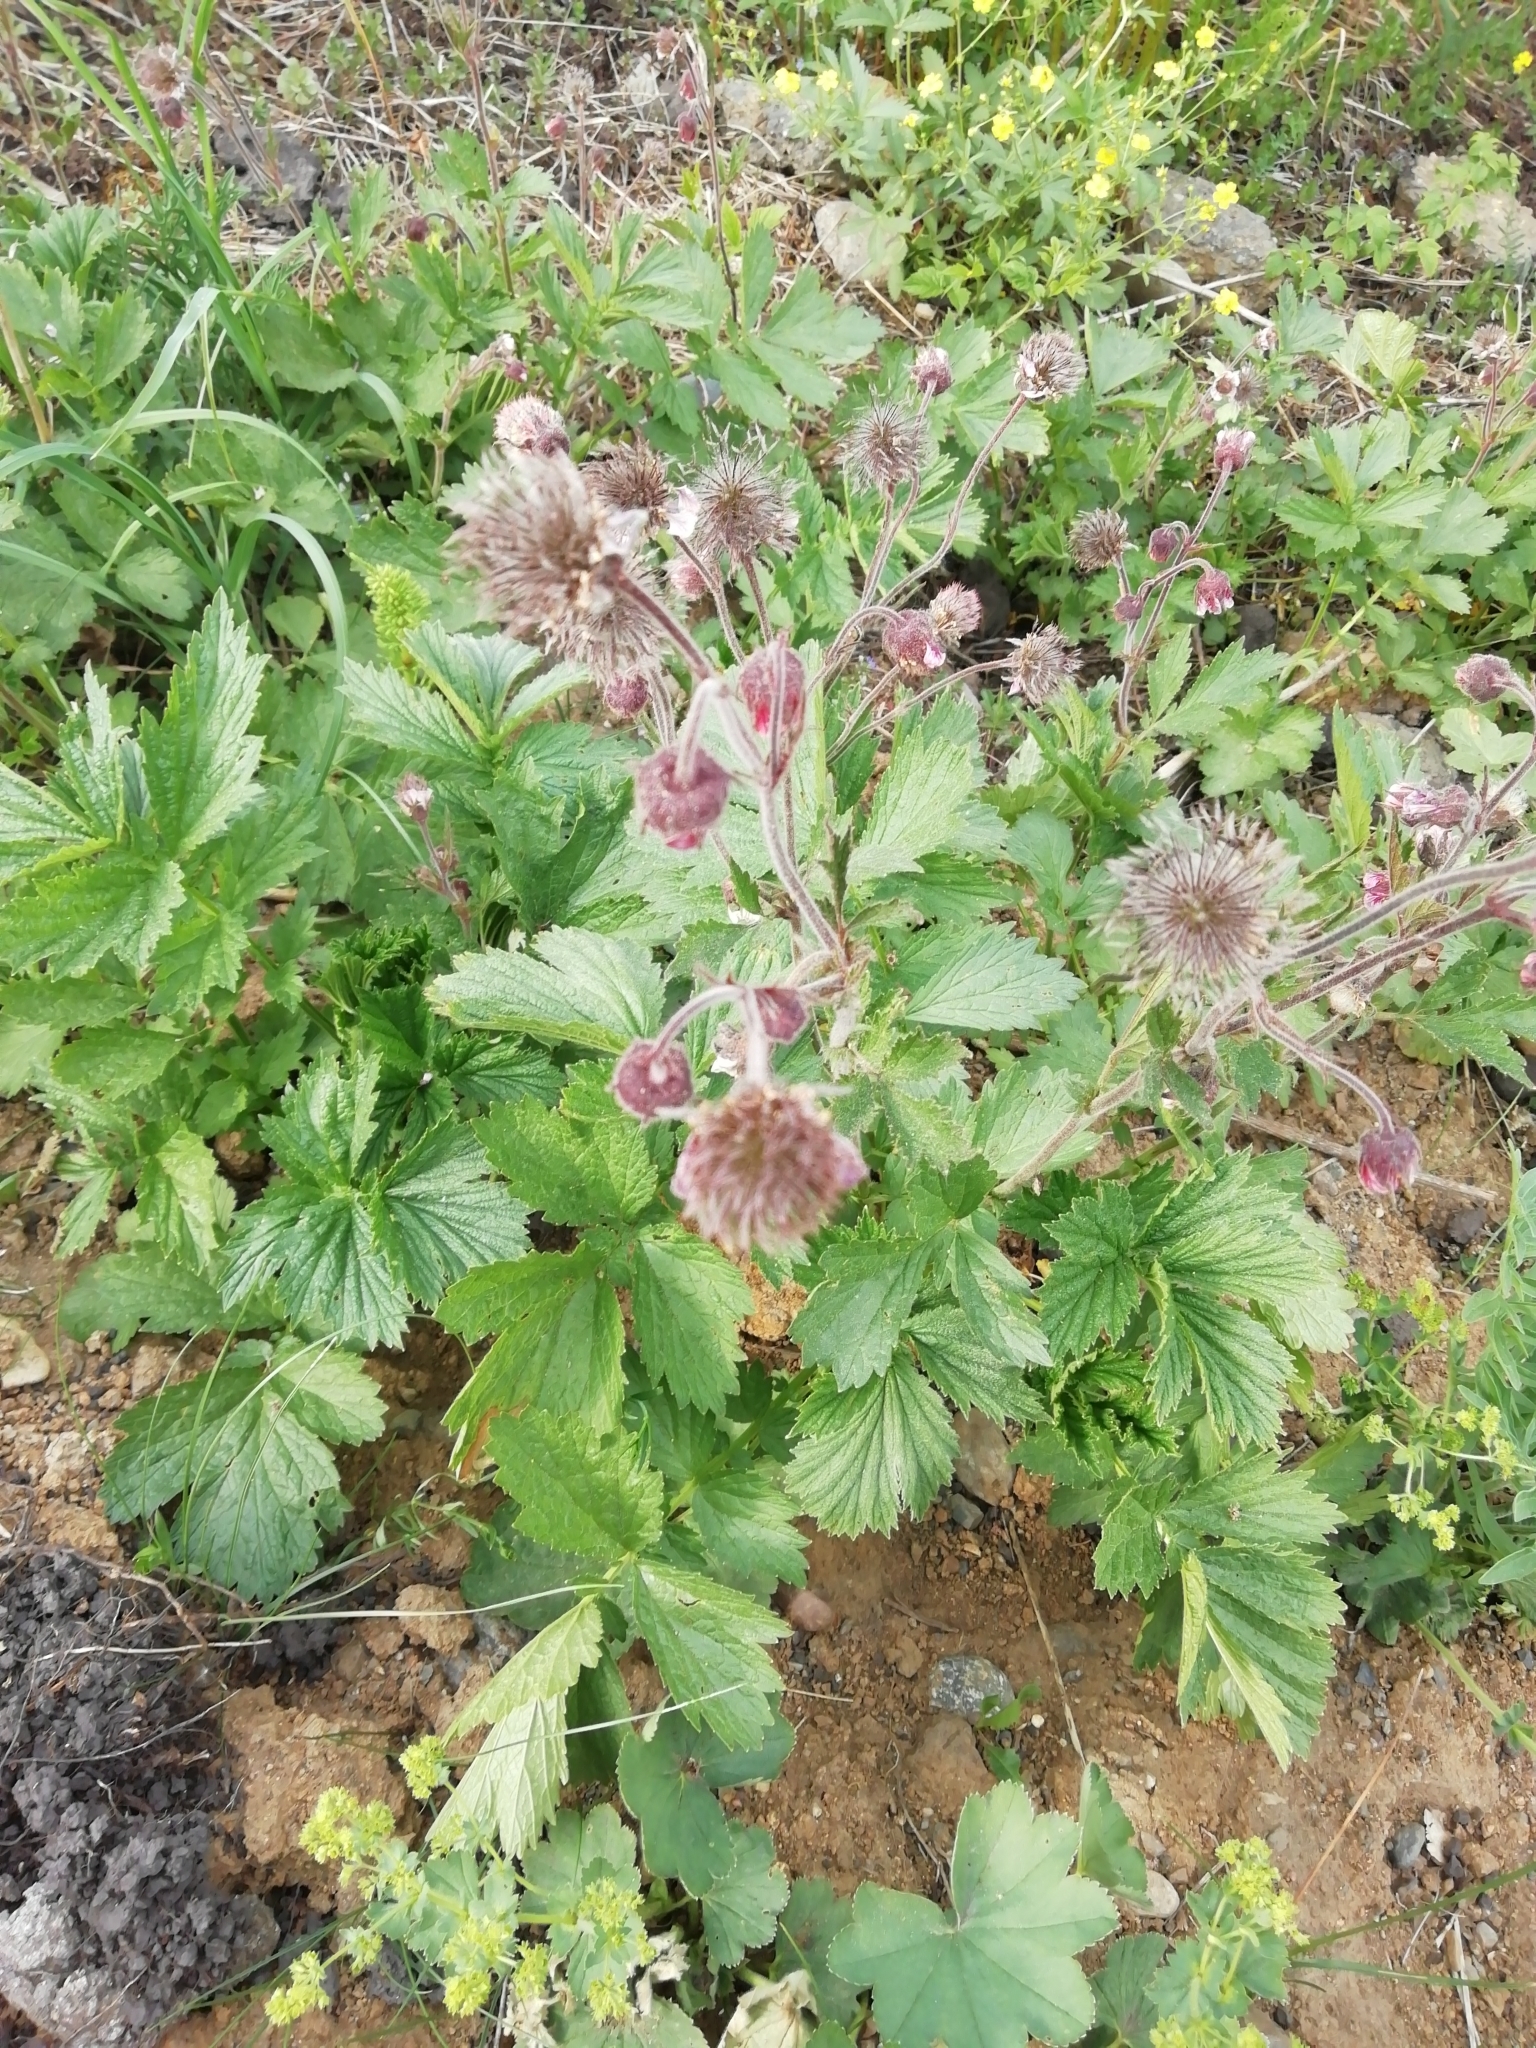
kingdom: Plantae
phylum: Tracheophyta
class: Magnoliopsida
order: Rosales
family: Rosaceae
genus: Geum
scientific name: Geum rivale
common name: Water avens
